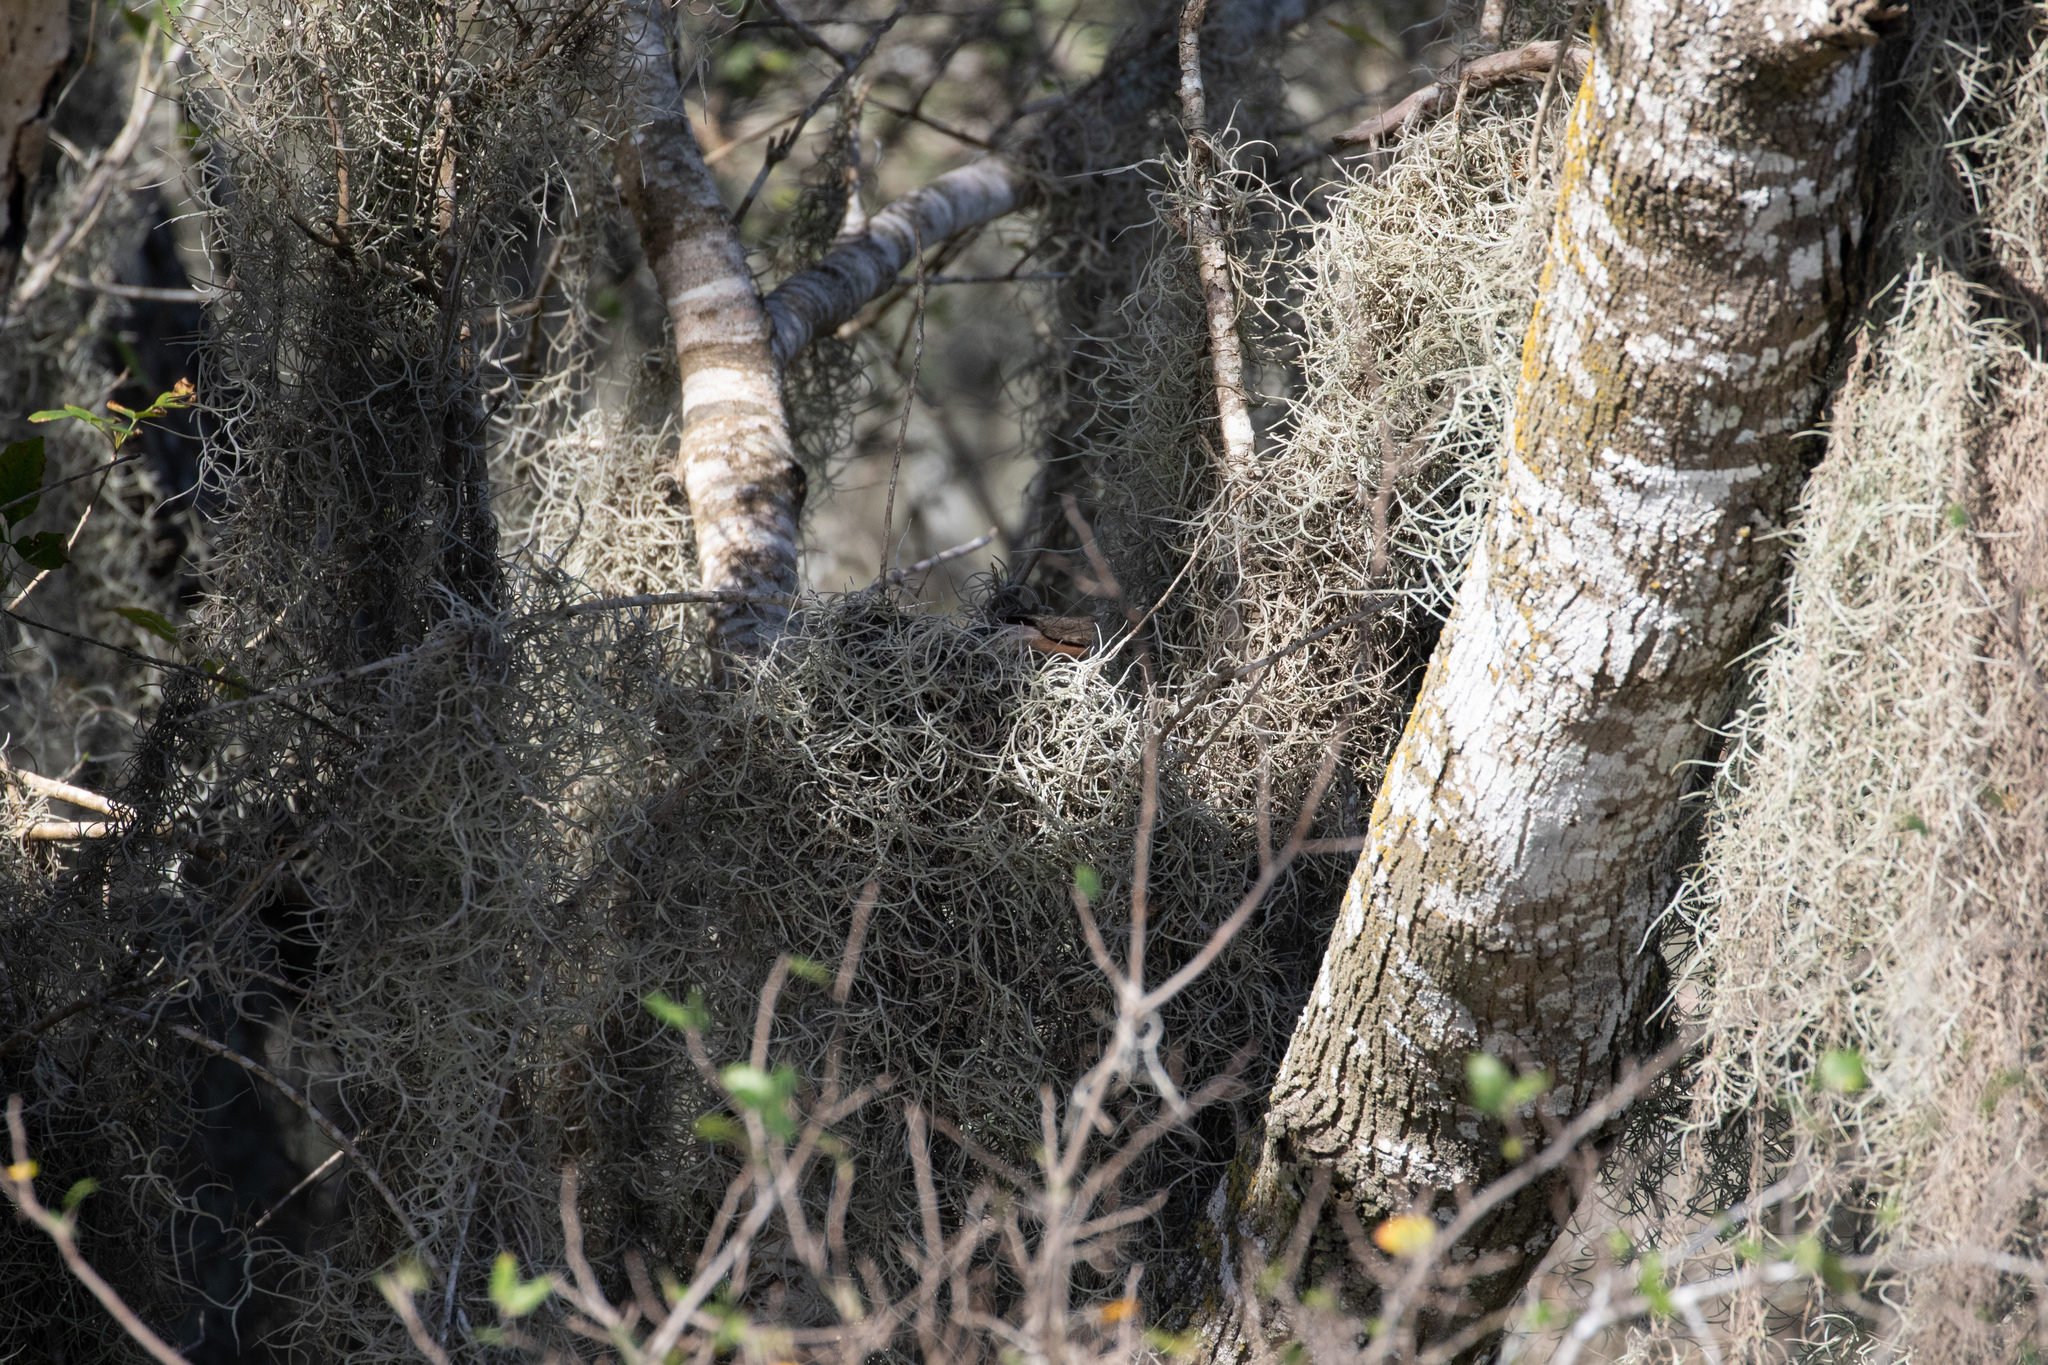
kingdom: Plantae
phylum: Tracheophyta
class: Liliopsida
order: Poales
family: Bromeliaceae
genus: Tillandsia
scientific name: Tillandsia usneoides
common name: Spanish moss
